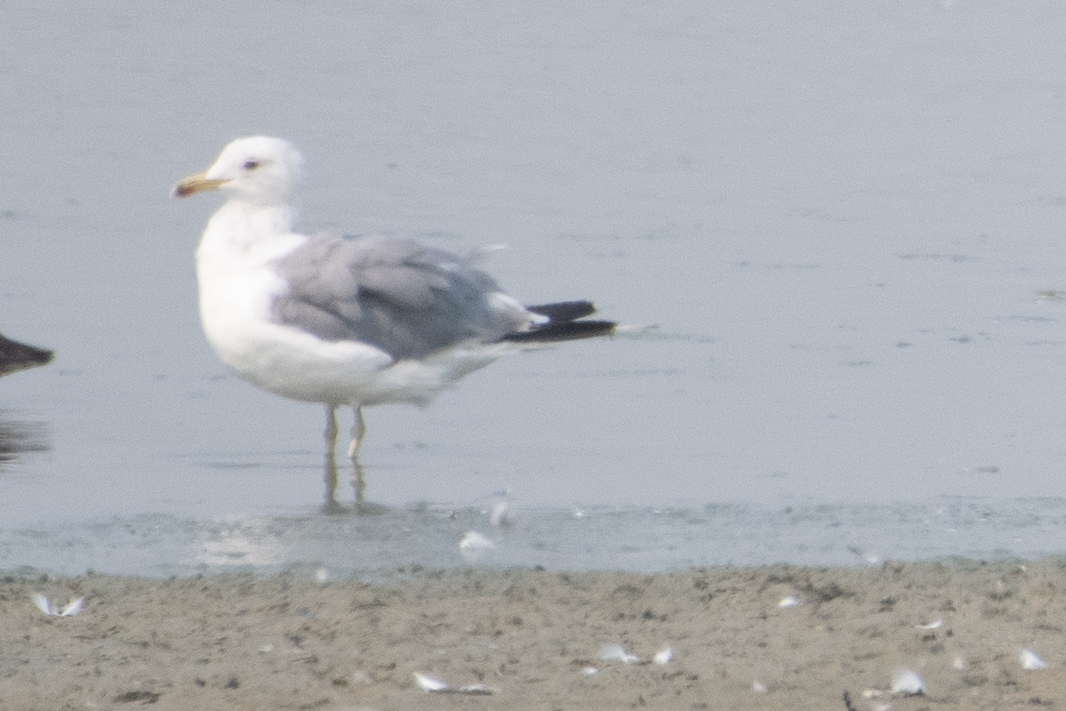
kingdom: Animalia
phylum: Chordata
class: Aves
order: Charadriiformes
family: Laridae
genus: Larus
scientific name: Larus californicus
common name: California gull
